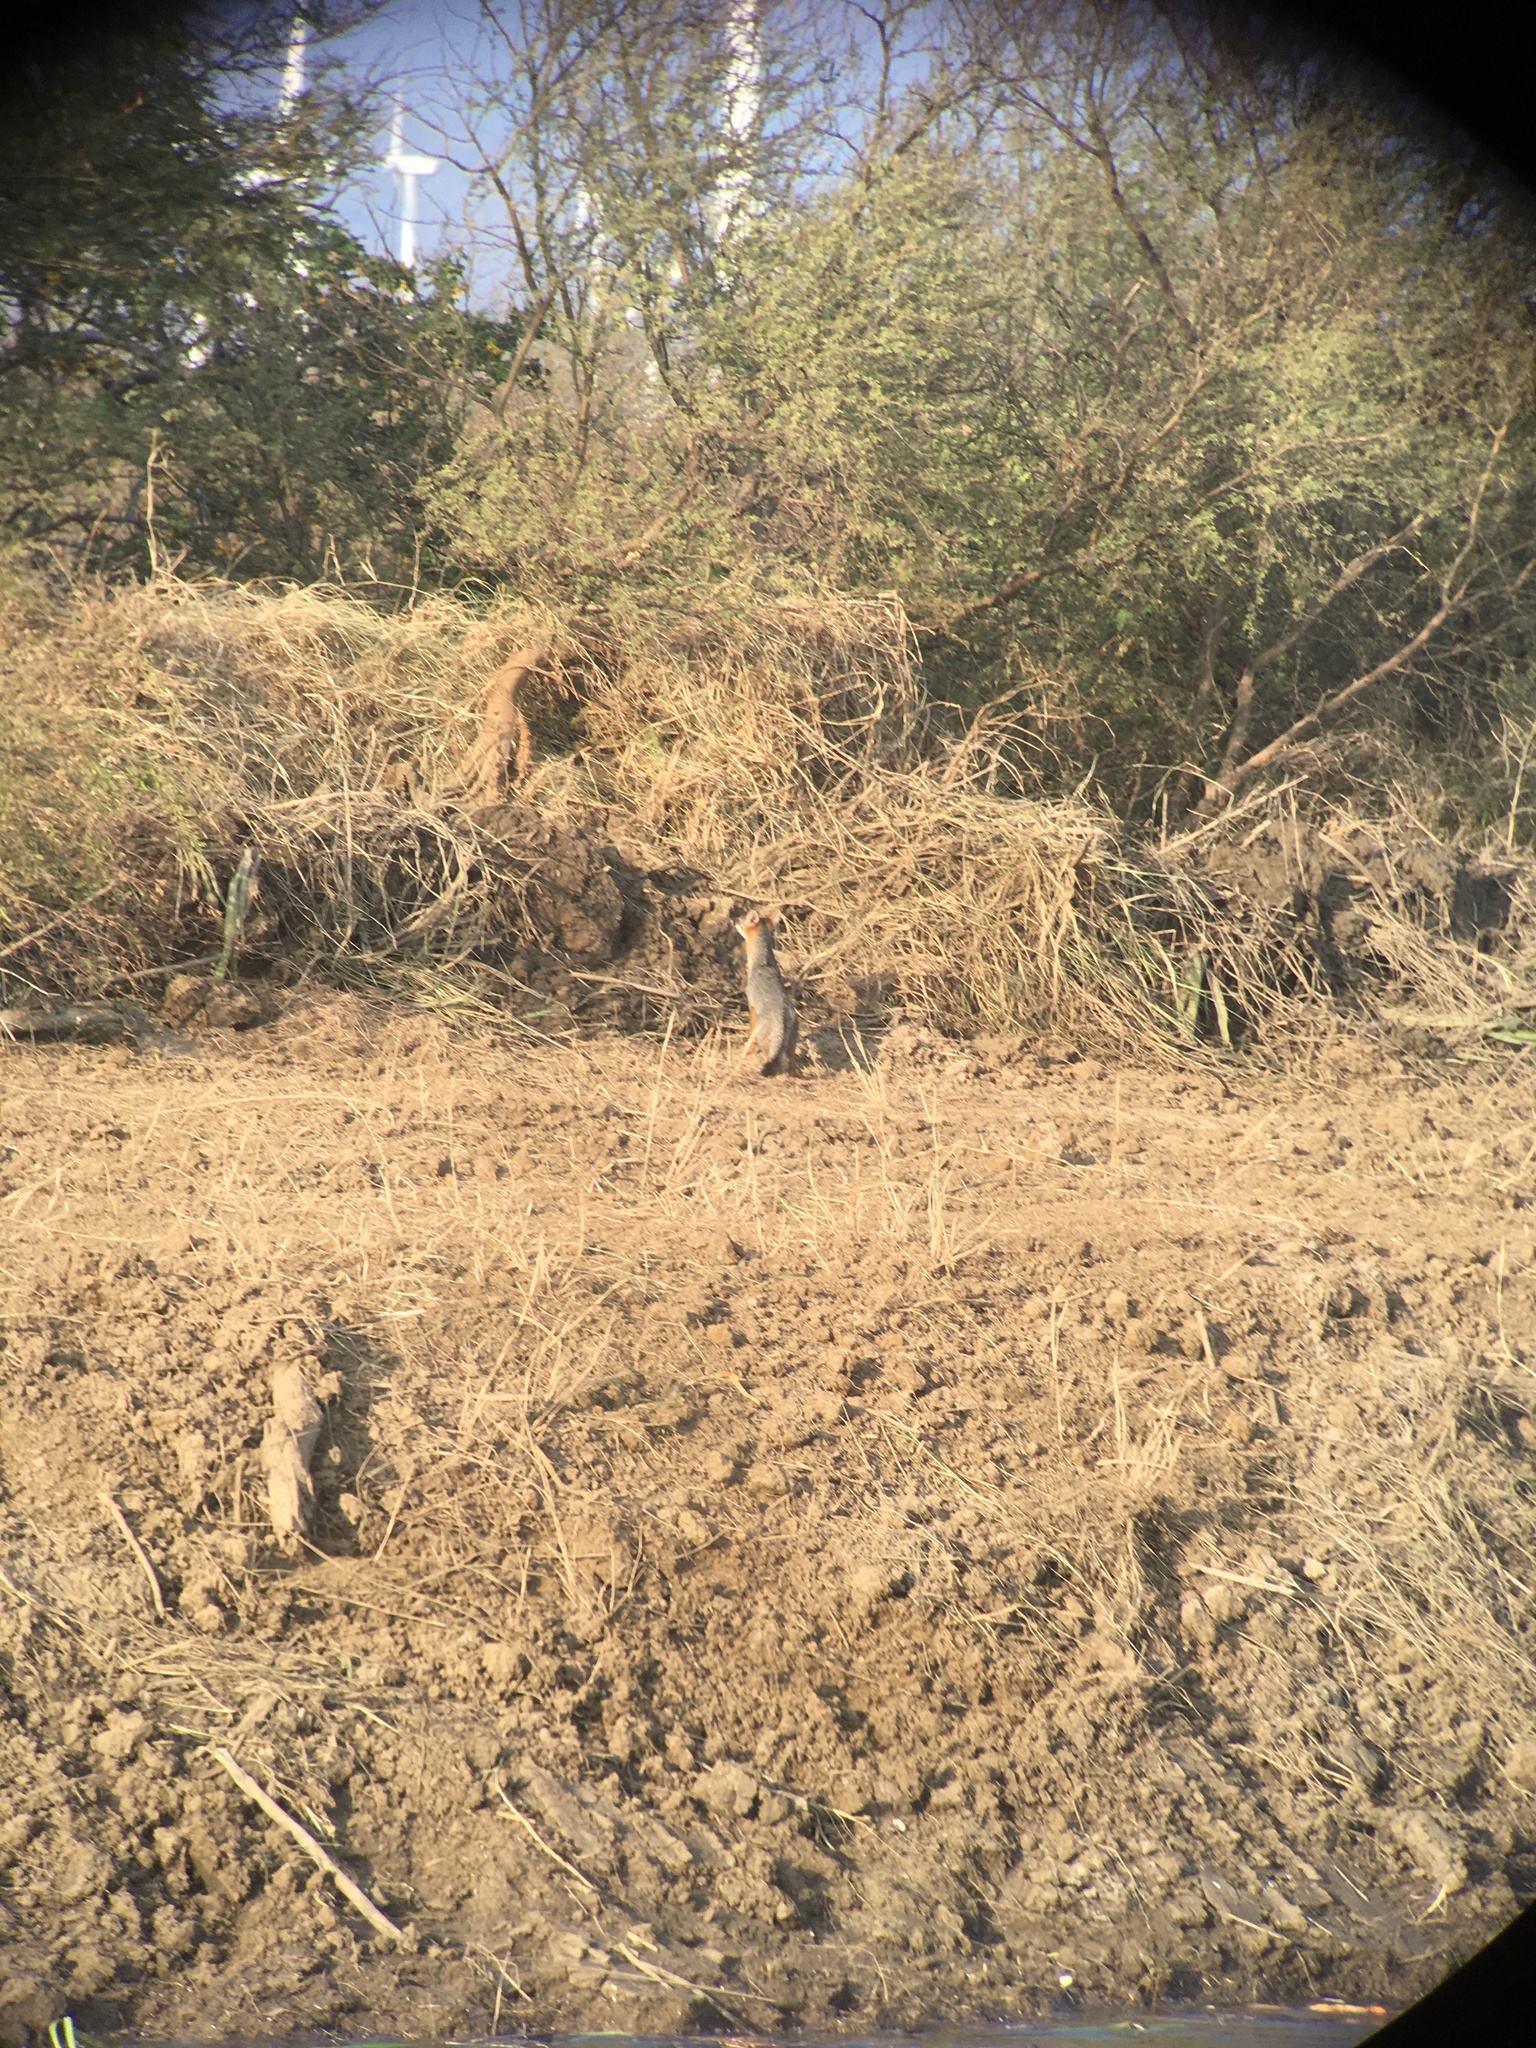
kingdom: Animalia
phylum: Chordata
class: Mammalia
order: Carnivora
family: Canidae
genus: Urocyon
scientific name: Urocyon cinereoargenteus
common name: Gray fox
